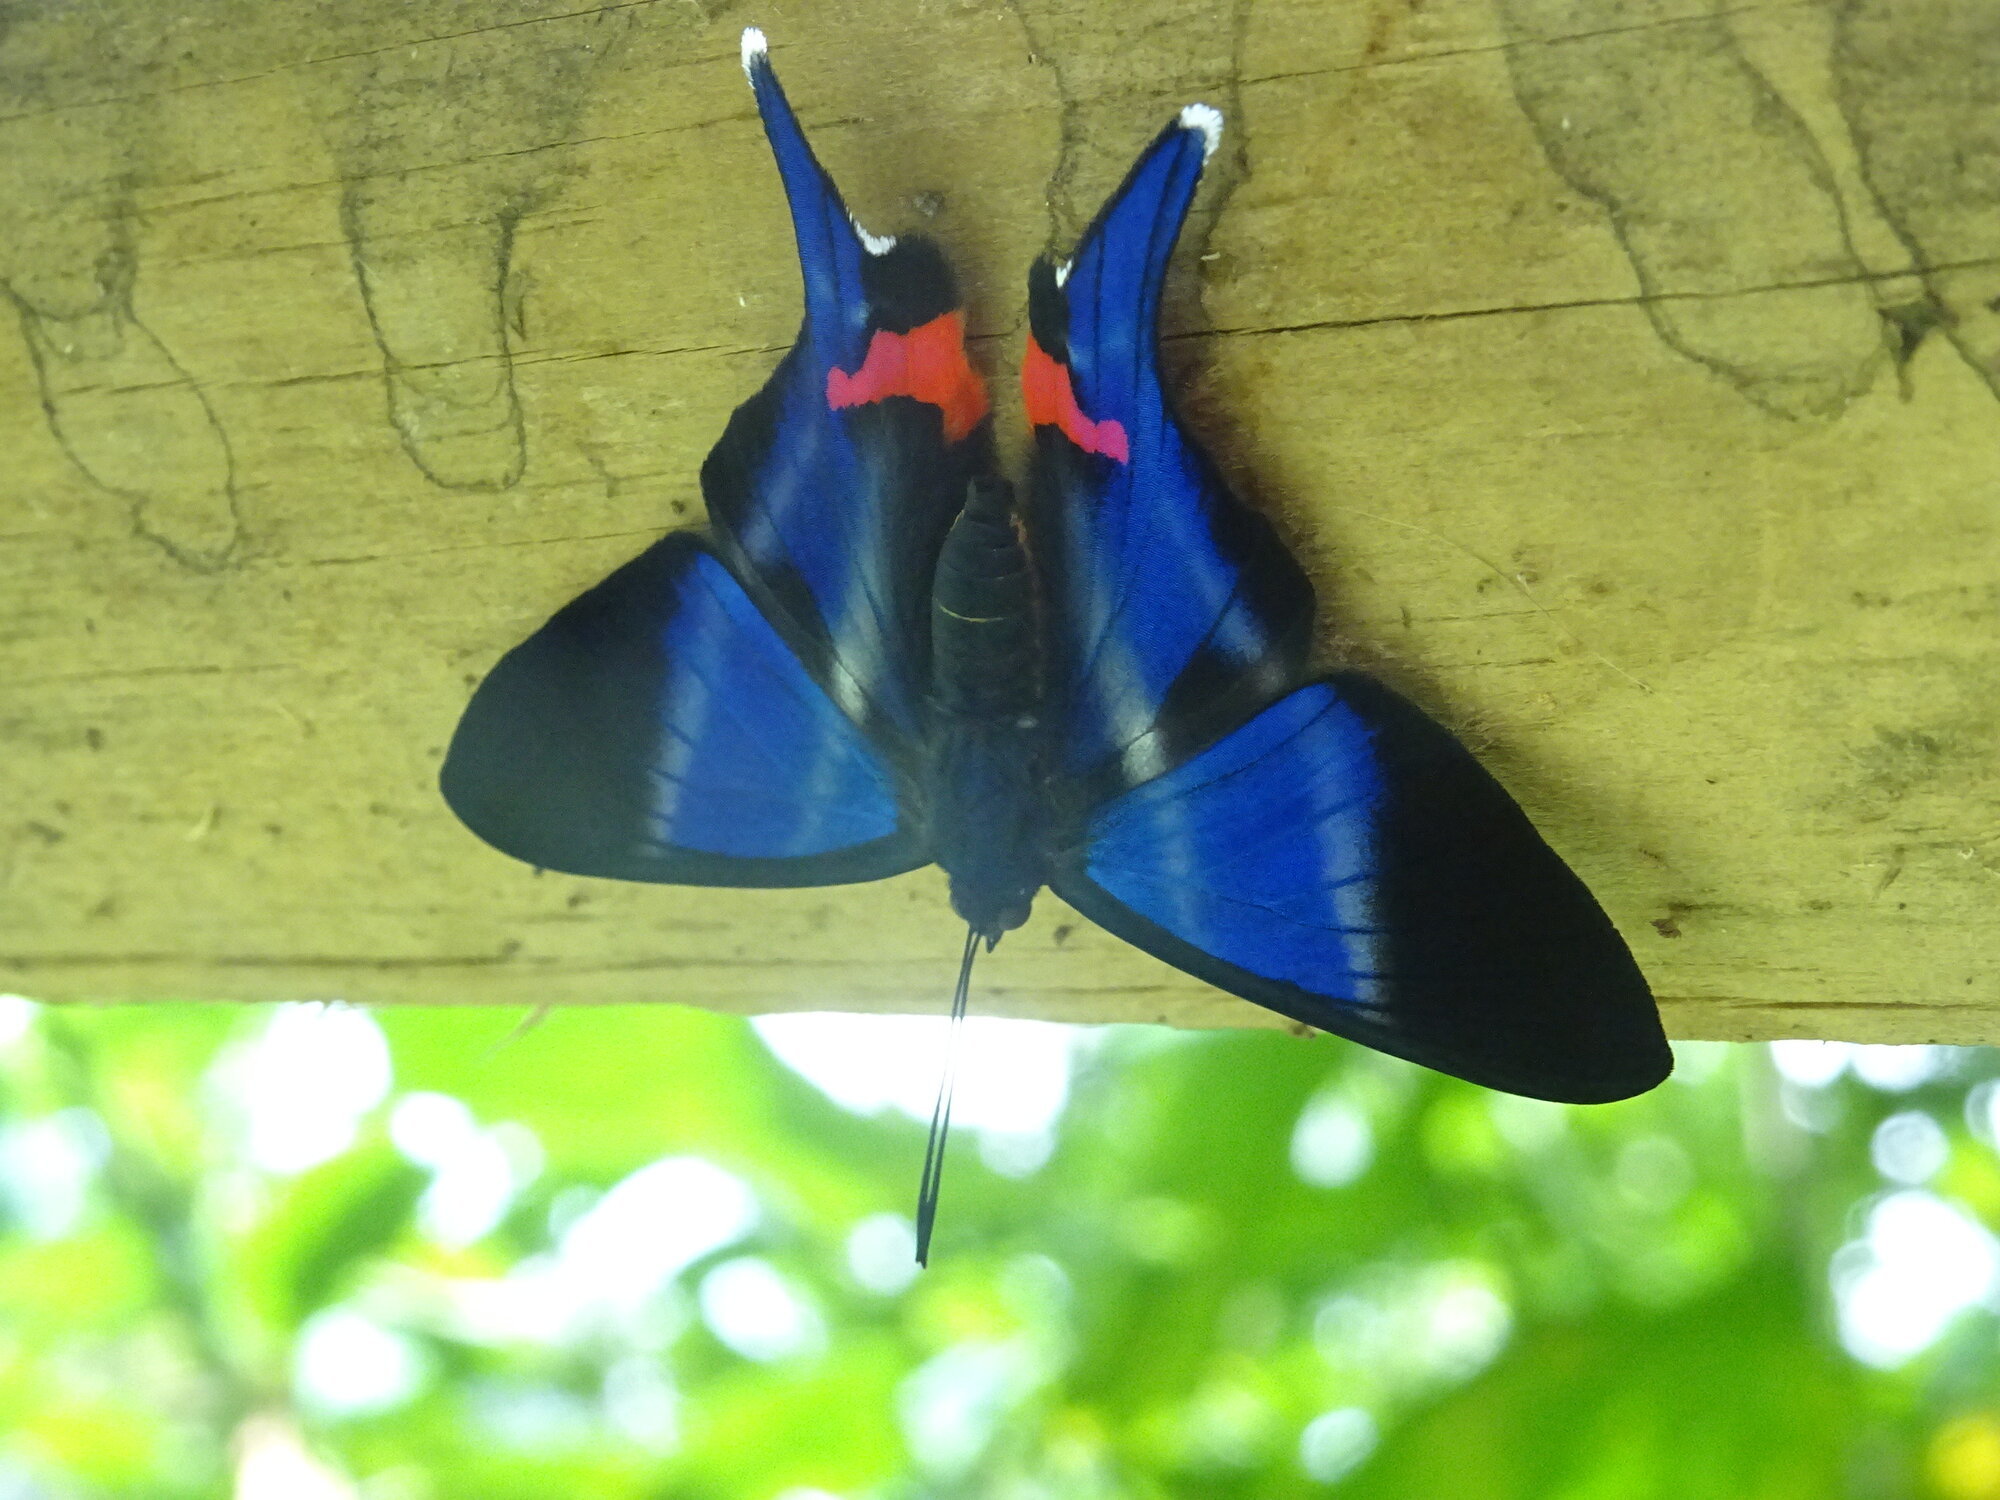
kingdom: Animalia
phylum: Arthropoda
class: Insecta
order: Lepidoptera
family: Riodinidae
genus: Rhetus
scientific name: Rhetus dysonii
